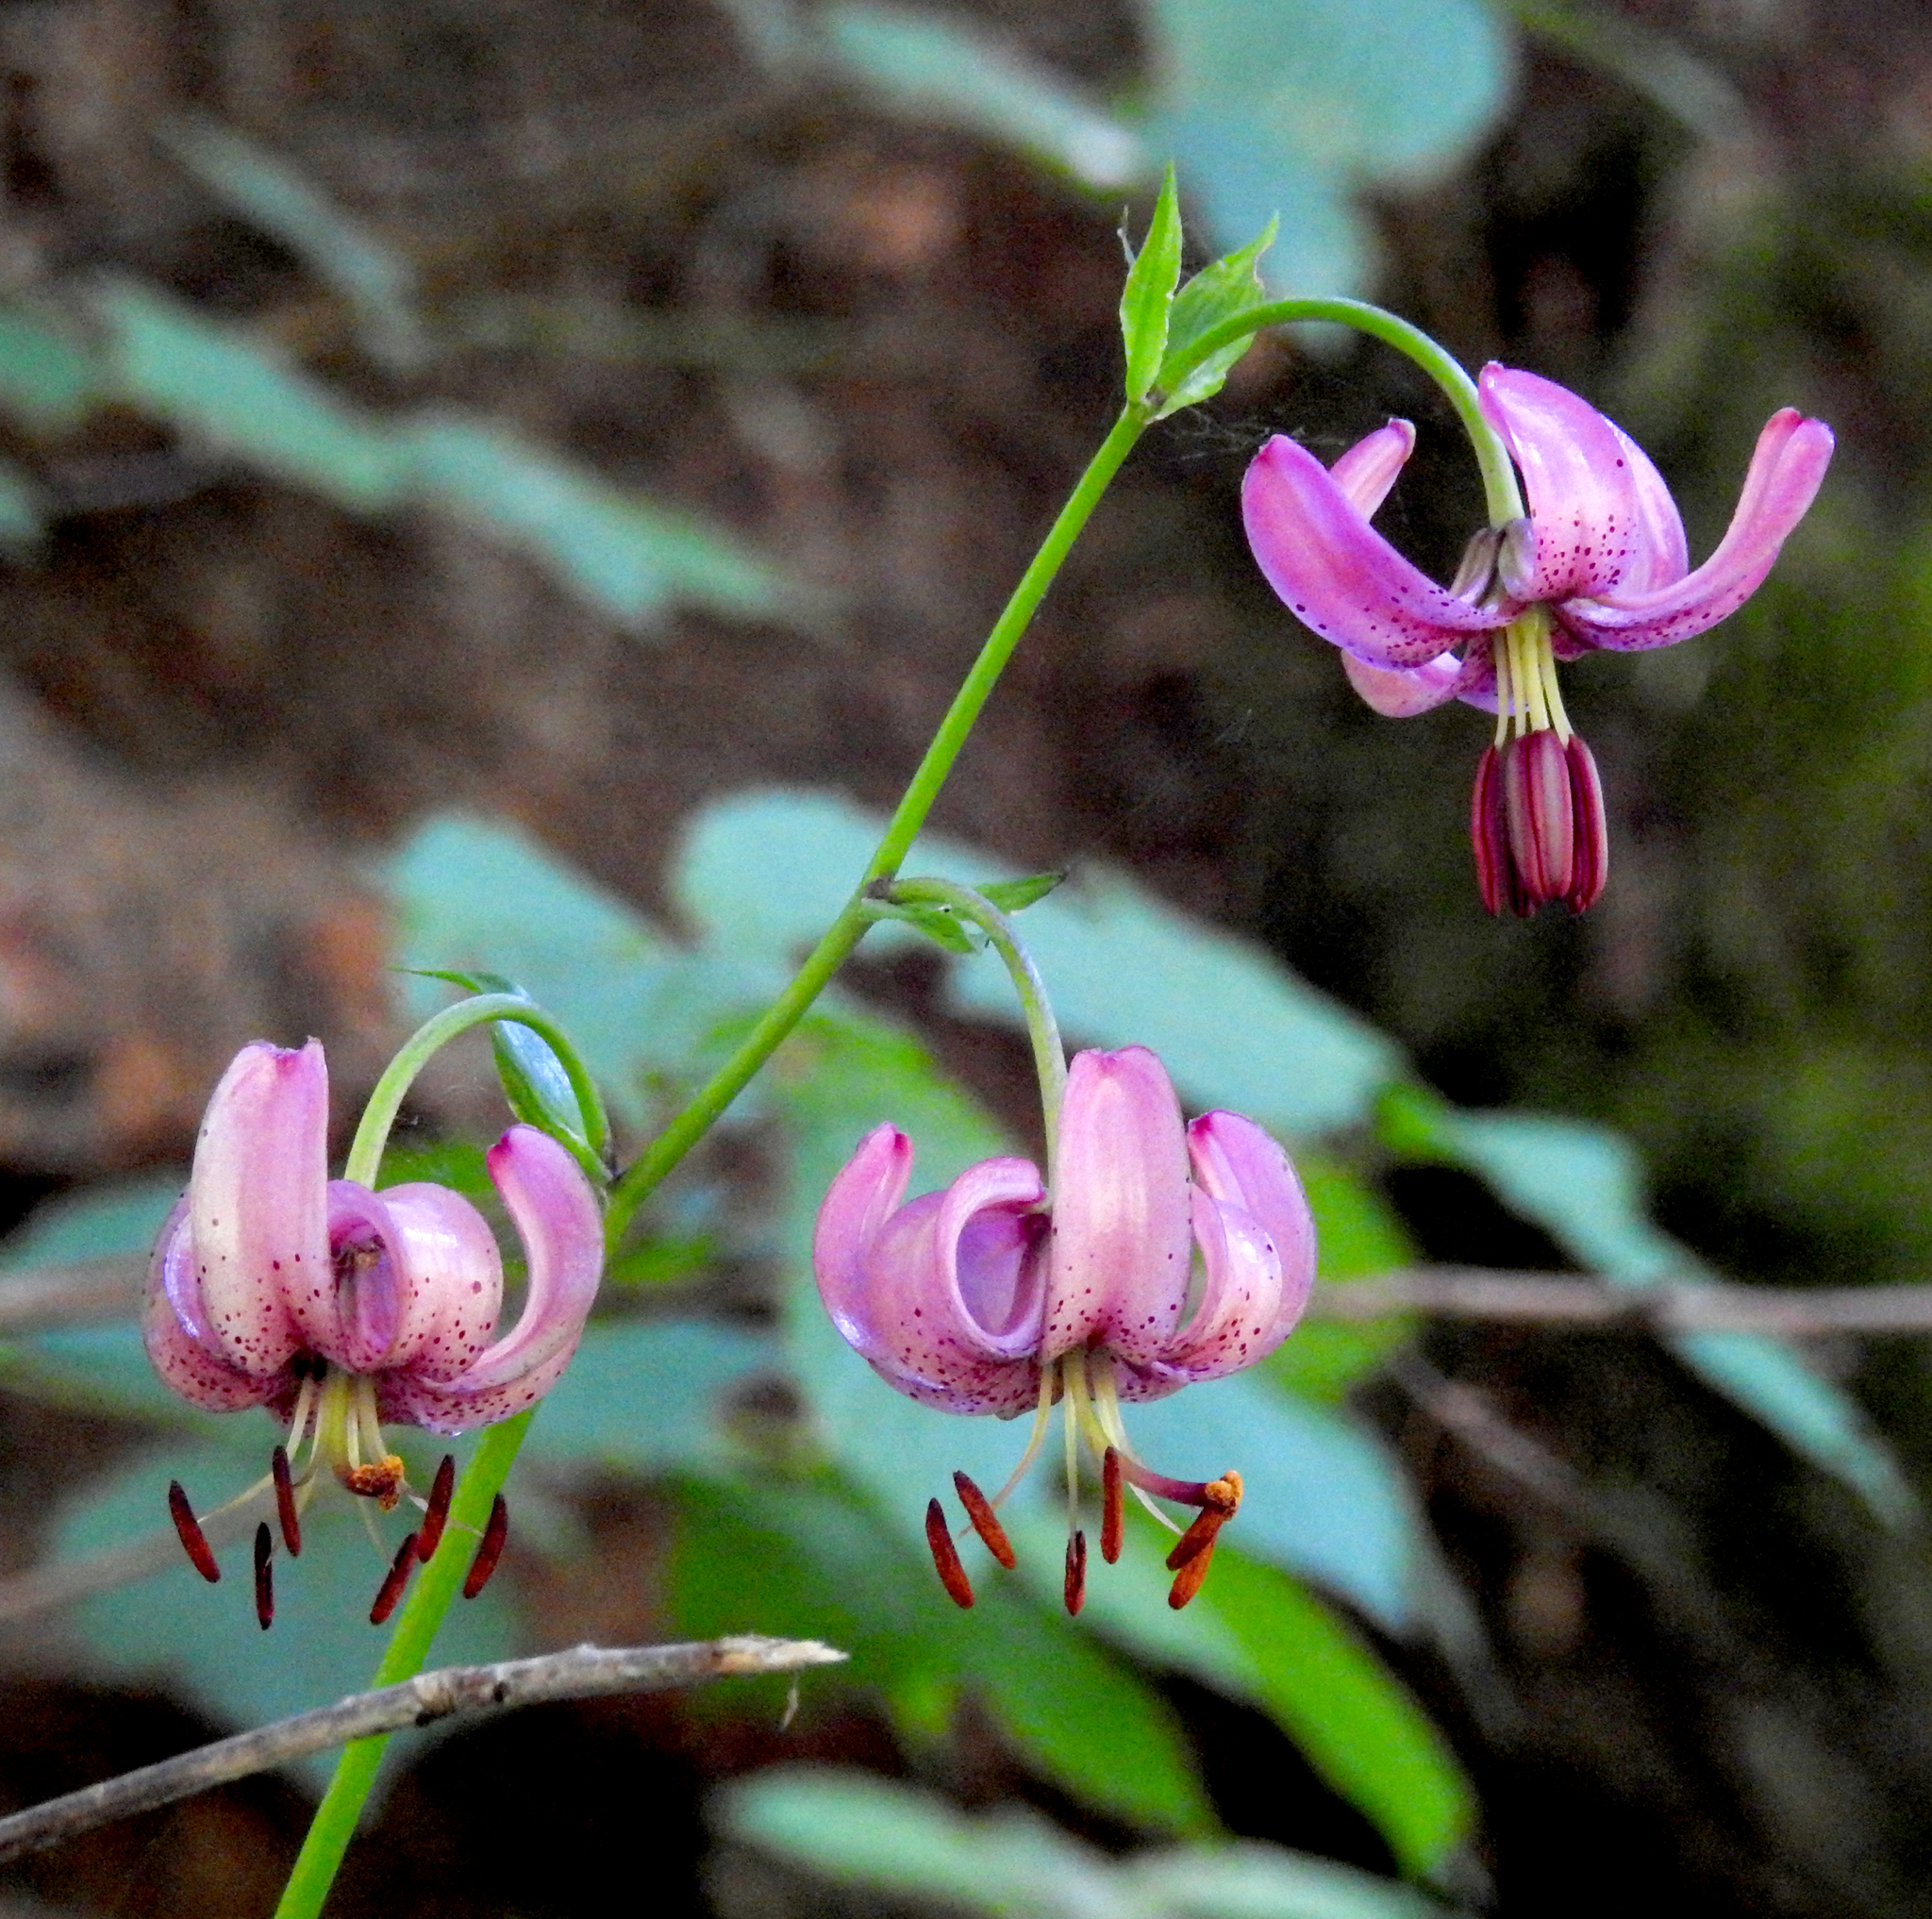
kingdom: Plantae
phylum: Tracheophyta
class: Liliopsida
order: Liliales
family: Liliaceae
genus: Lilium
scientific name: Lilium martagon
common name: Martagon lily
